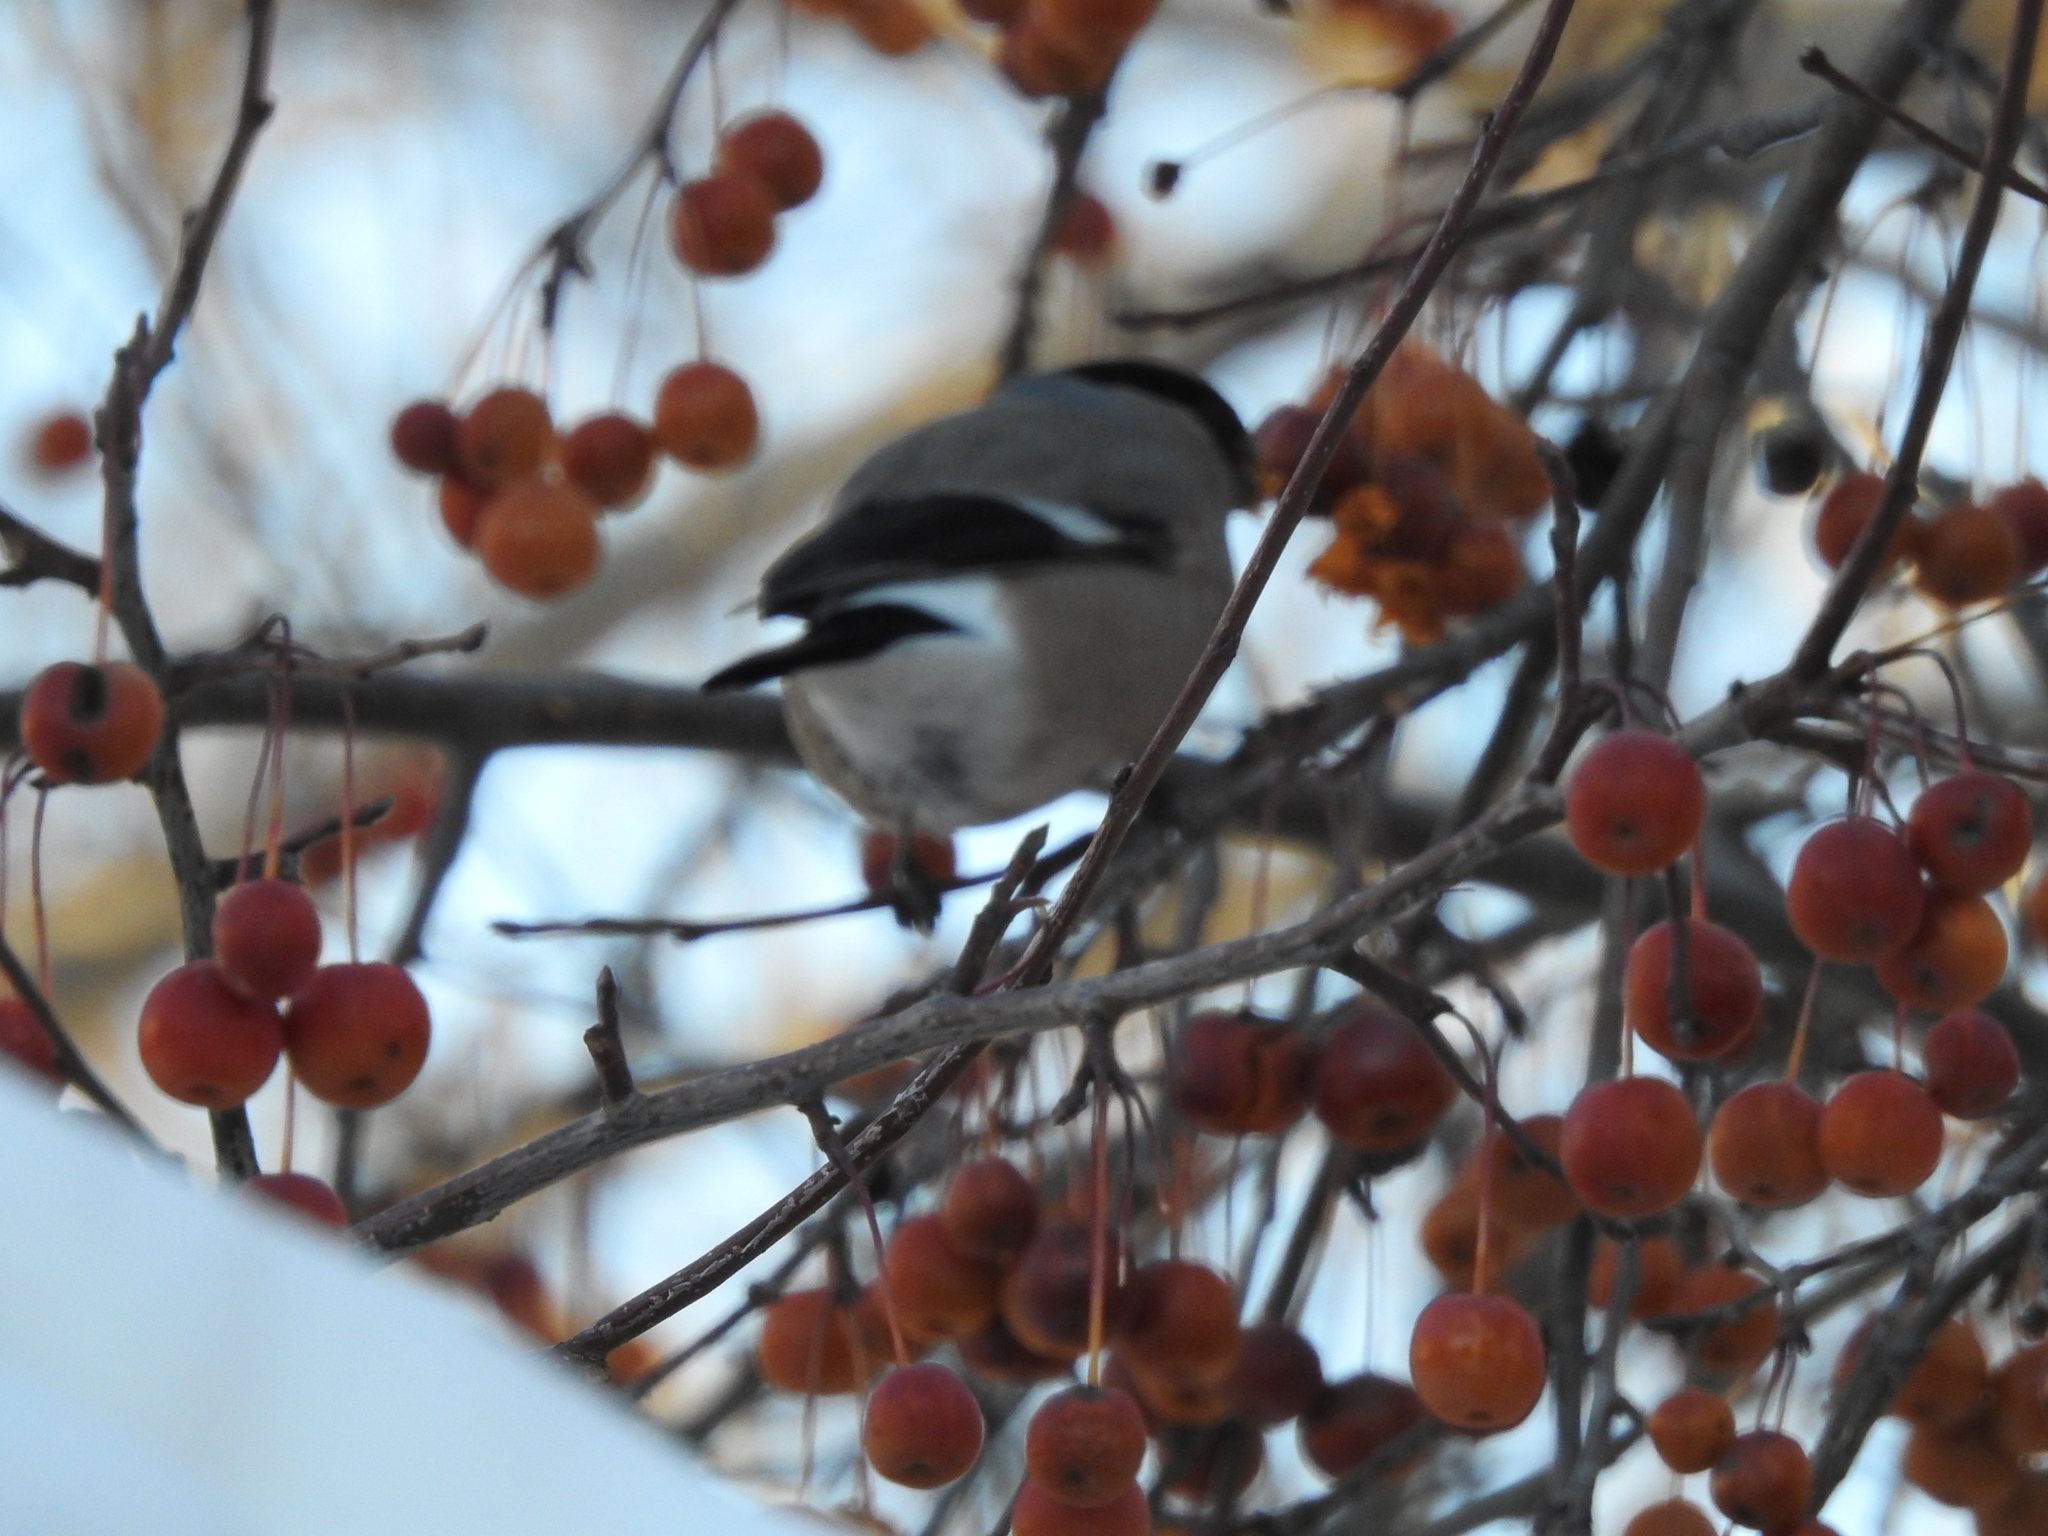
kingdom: Animalia
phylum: Chordata
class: Aves
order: Passeriformes
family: Fringillidae
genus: Pyrrhula
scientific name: Pyrrhula pyrrhula
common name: Eurasian bullfinch
